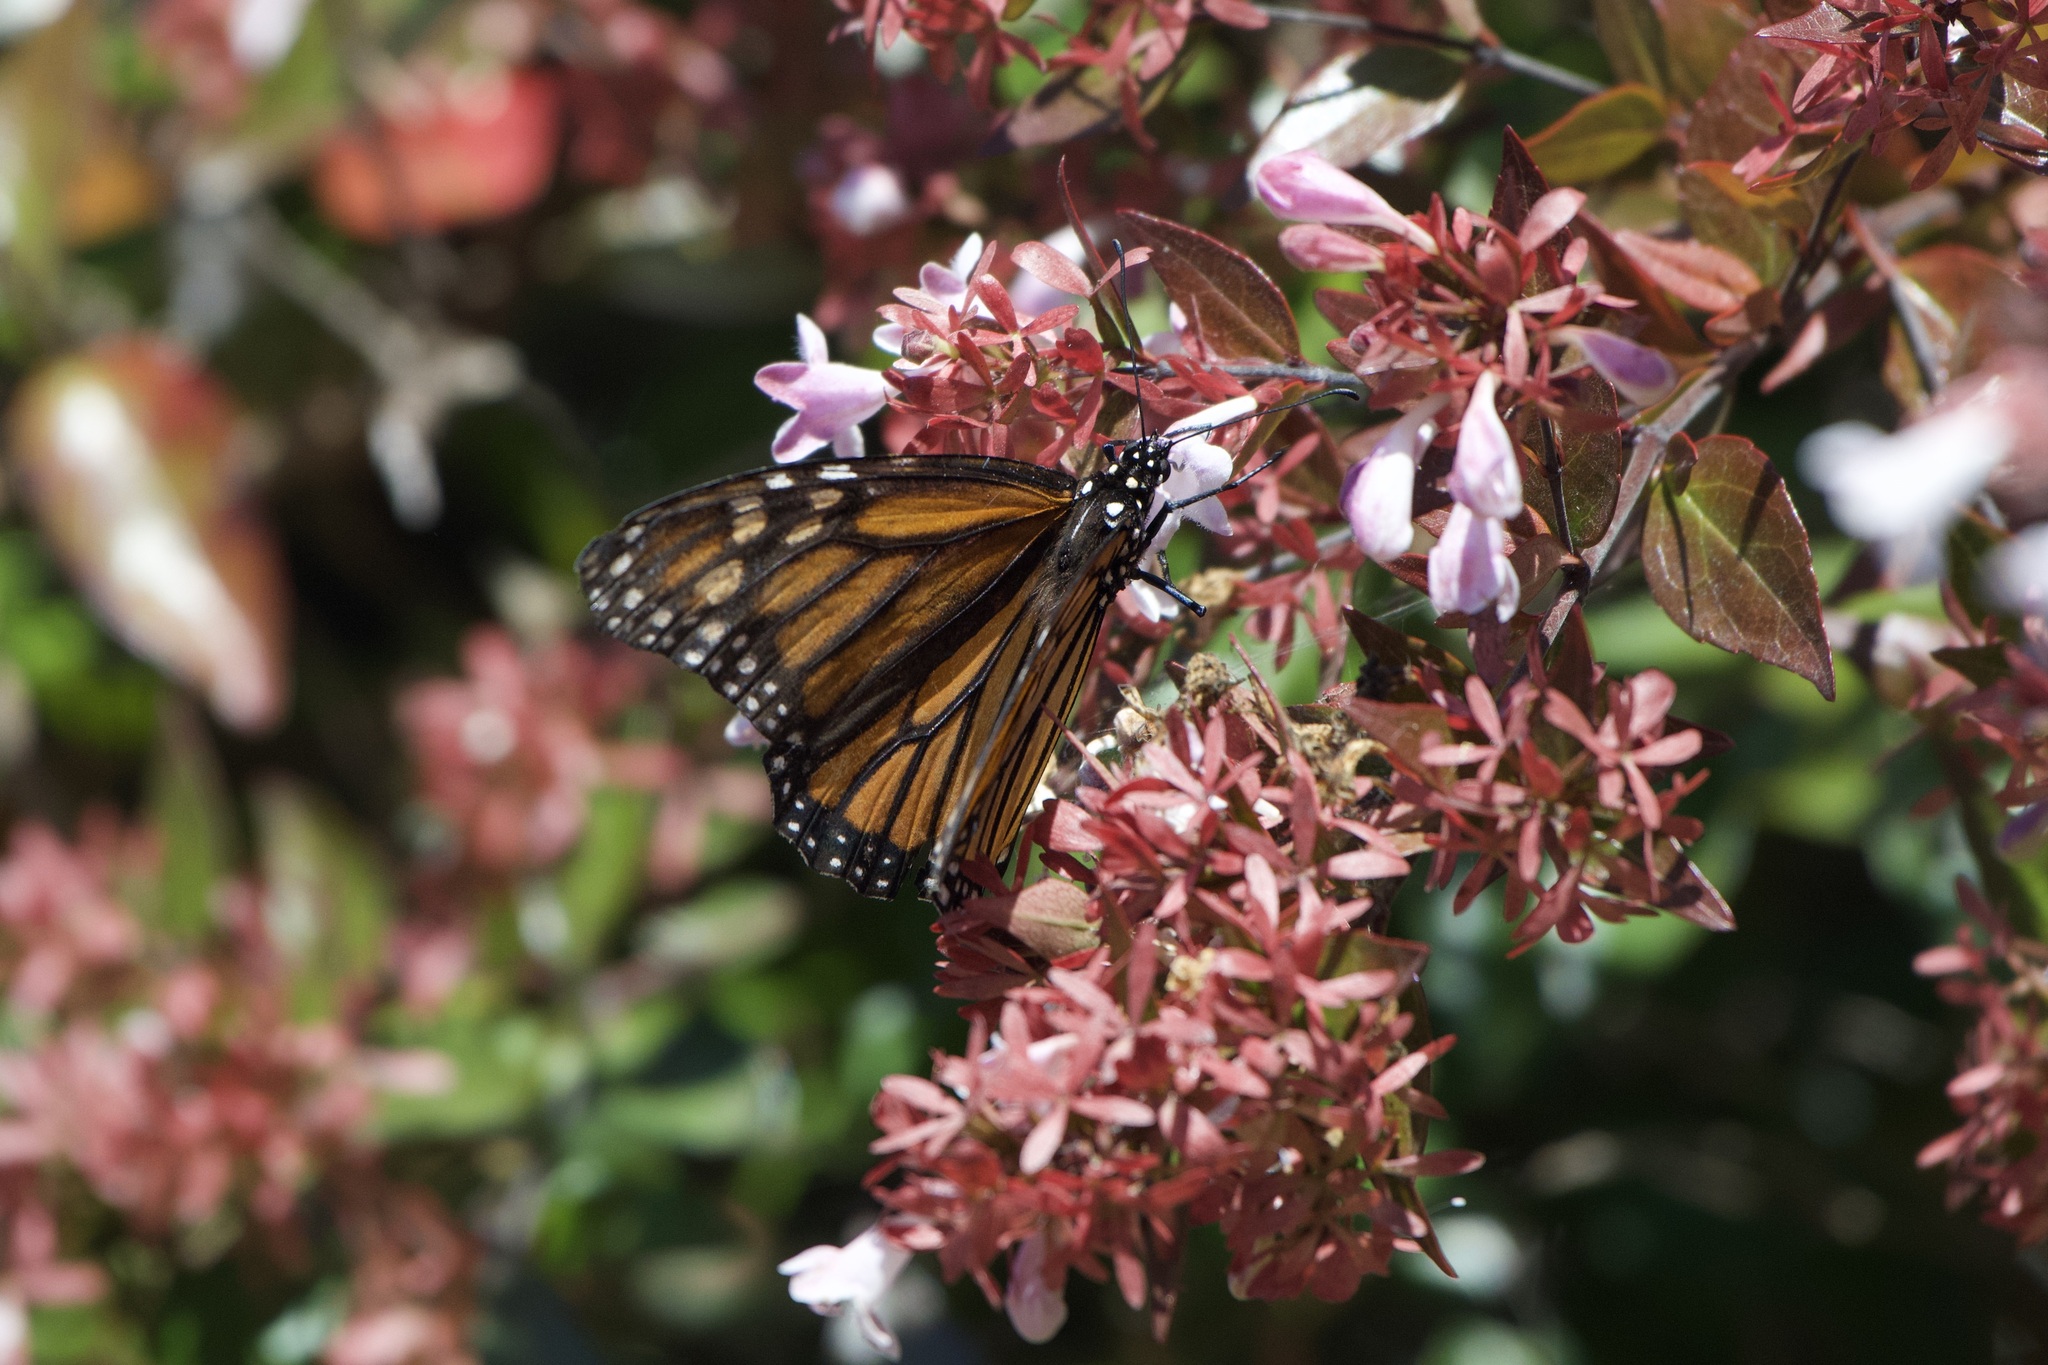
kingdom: Animalia
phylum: Arthropoda
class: Insecta
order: Lepidoptera
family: Nymphalidae
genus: Danaus
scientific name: Danaus plexippus
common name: Monarch
